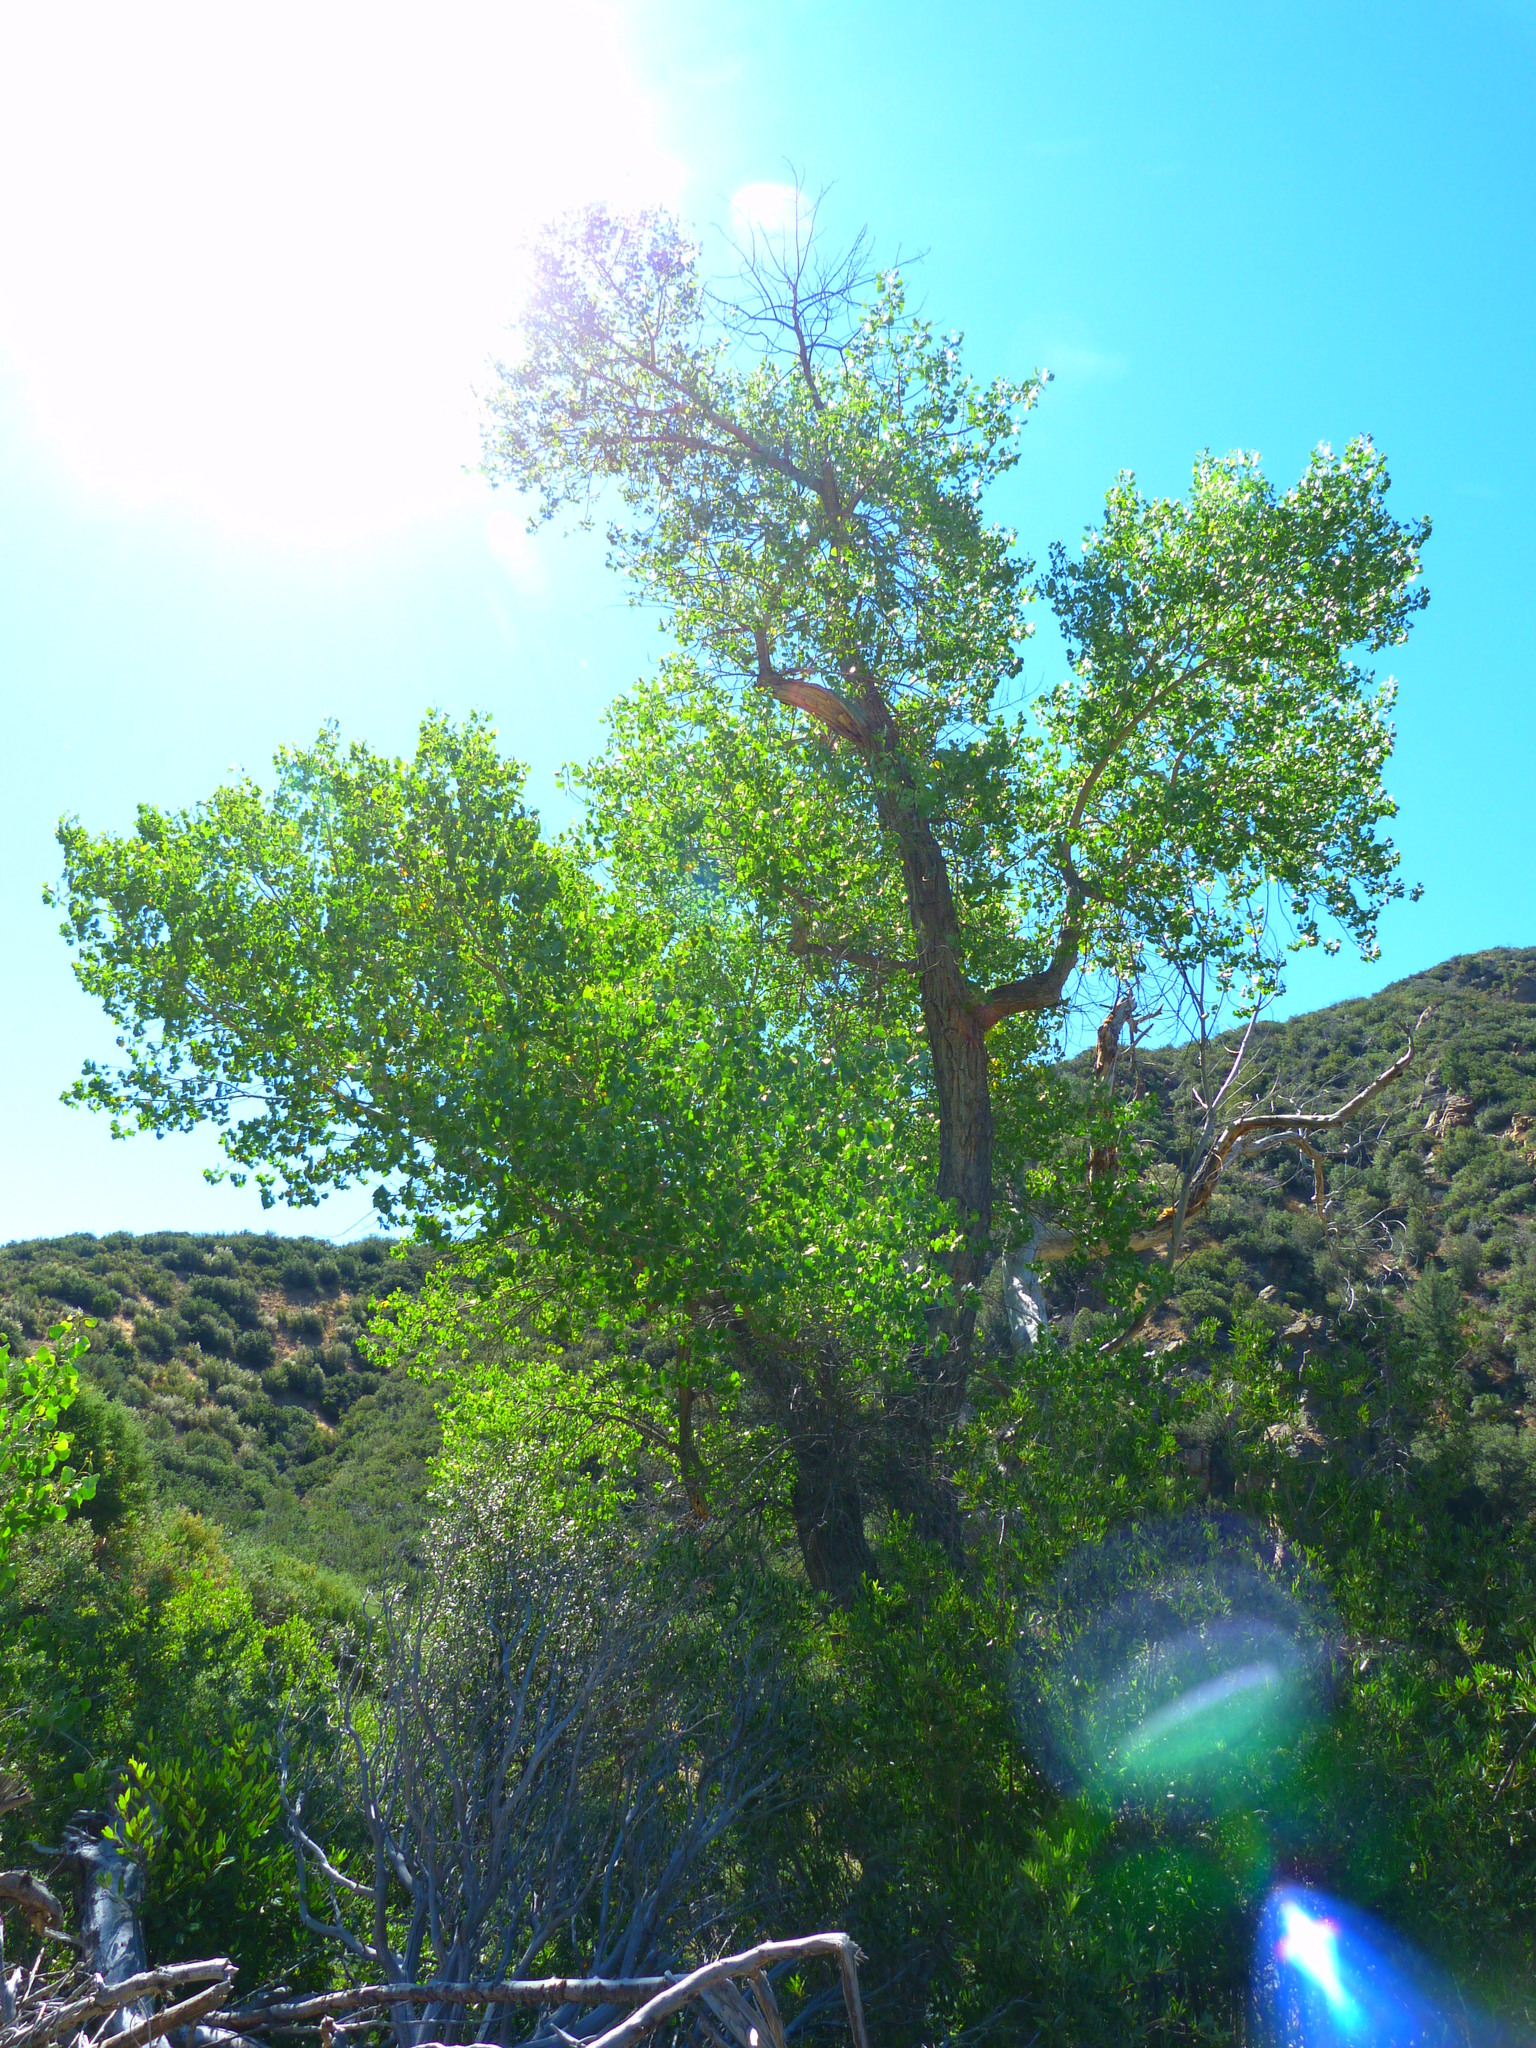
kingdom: Plantae
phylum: Tracheophyta
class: Magnoliopsida
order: Malpighiales
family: Salicaceae
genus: Populus
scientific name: Populus fremontii
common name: Fremont's cottonwood
